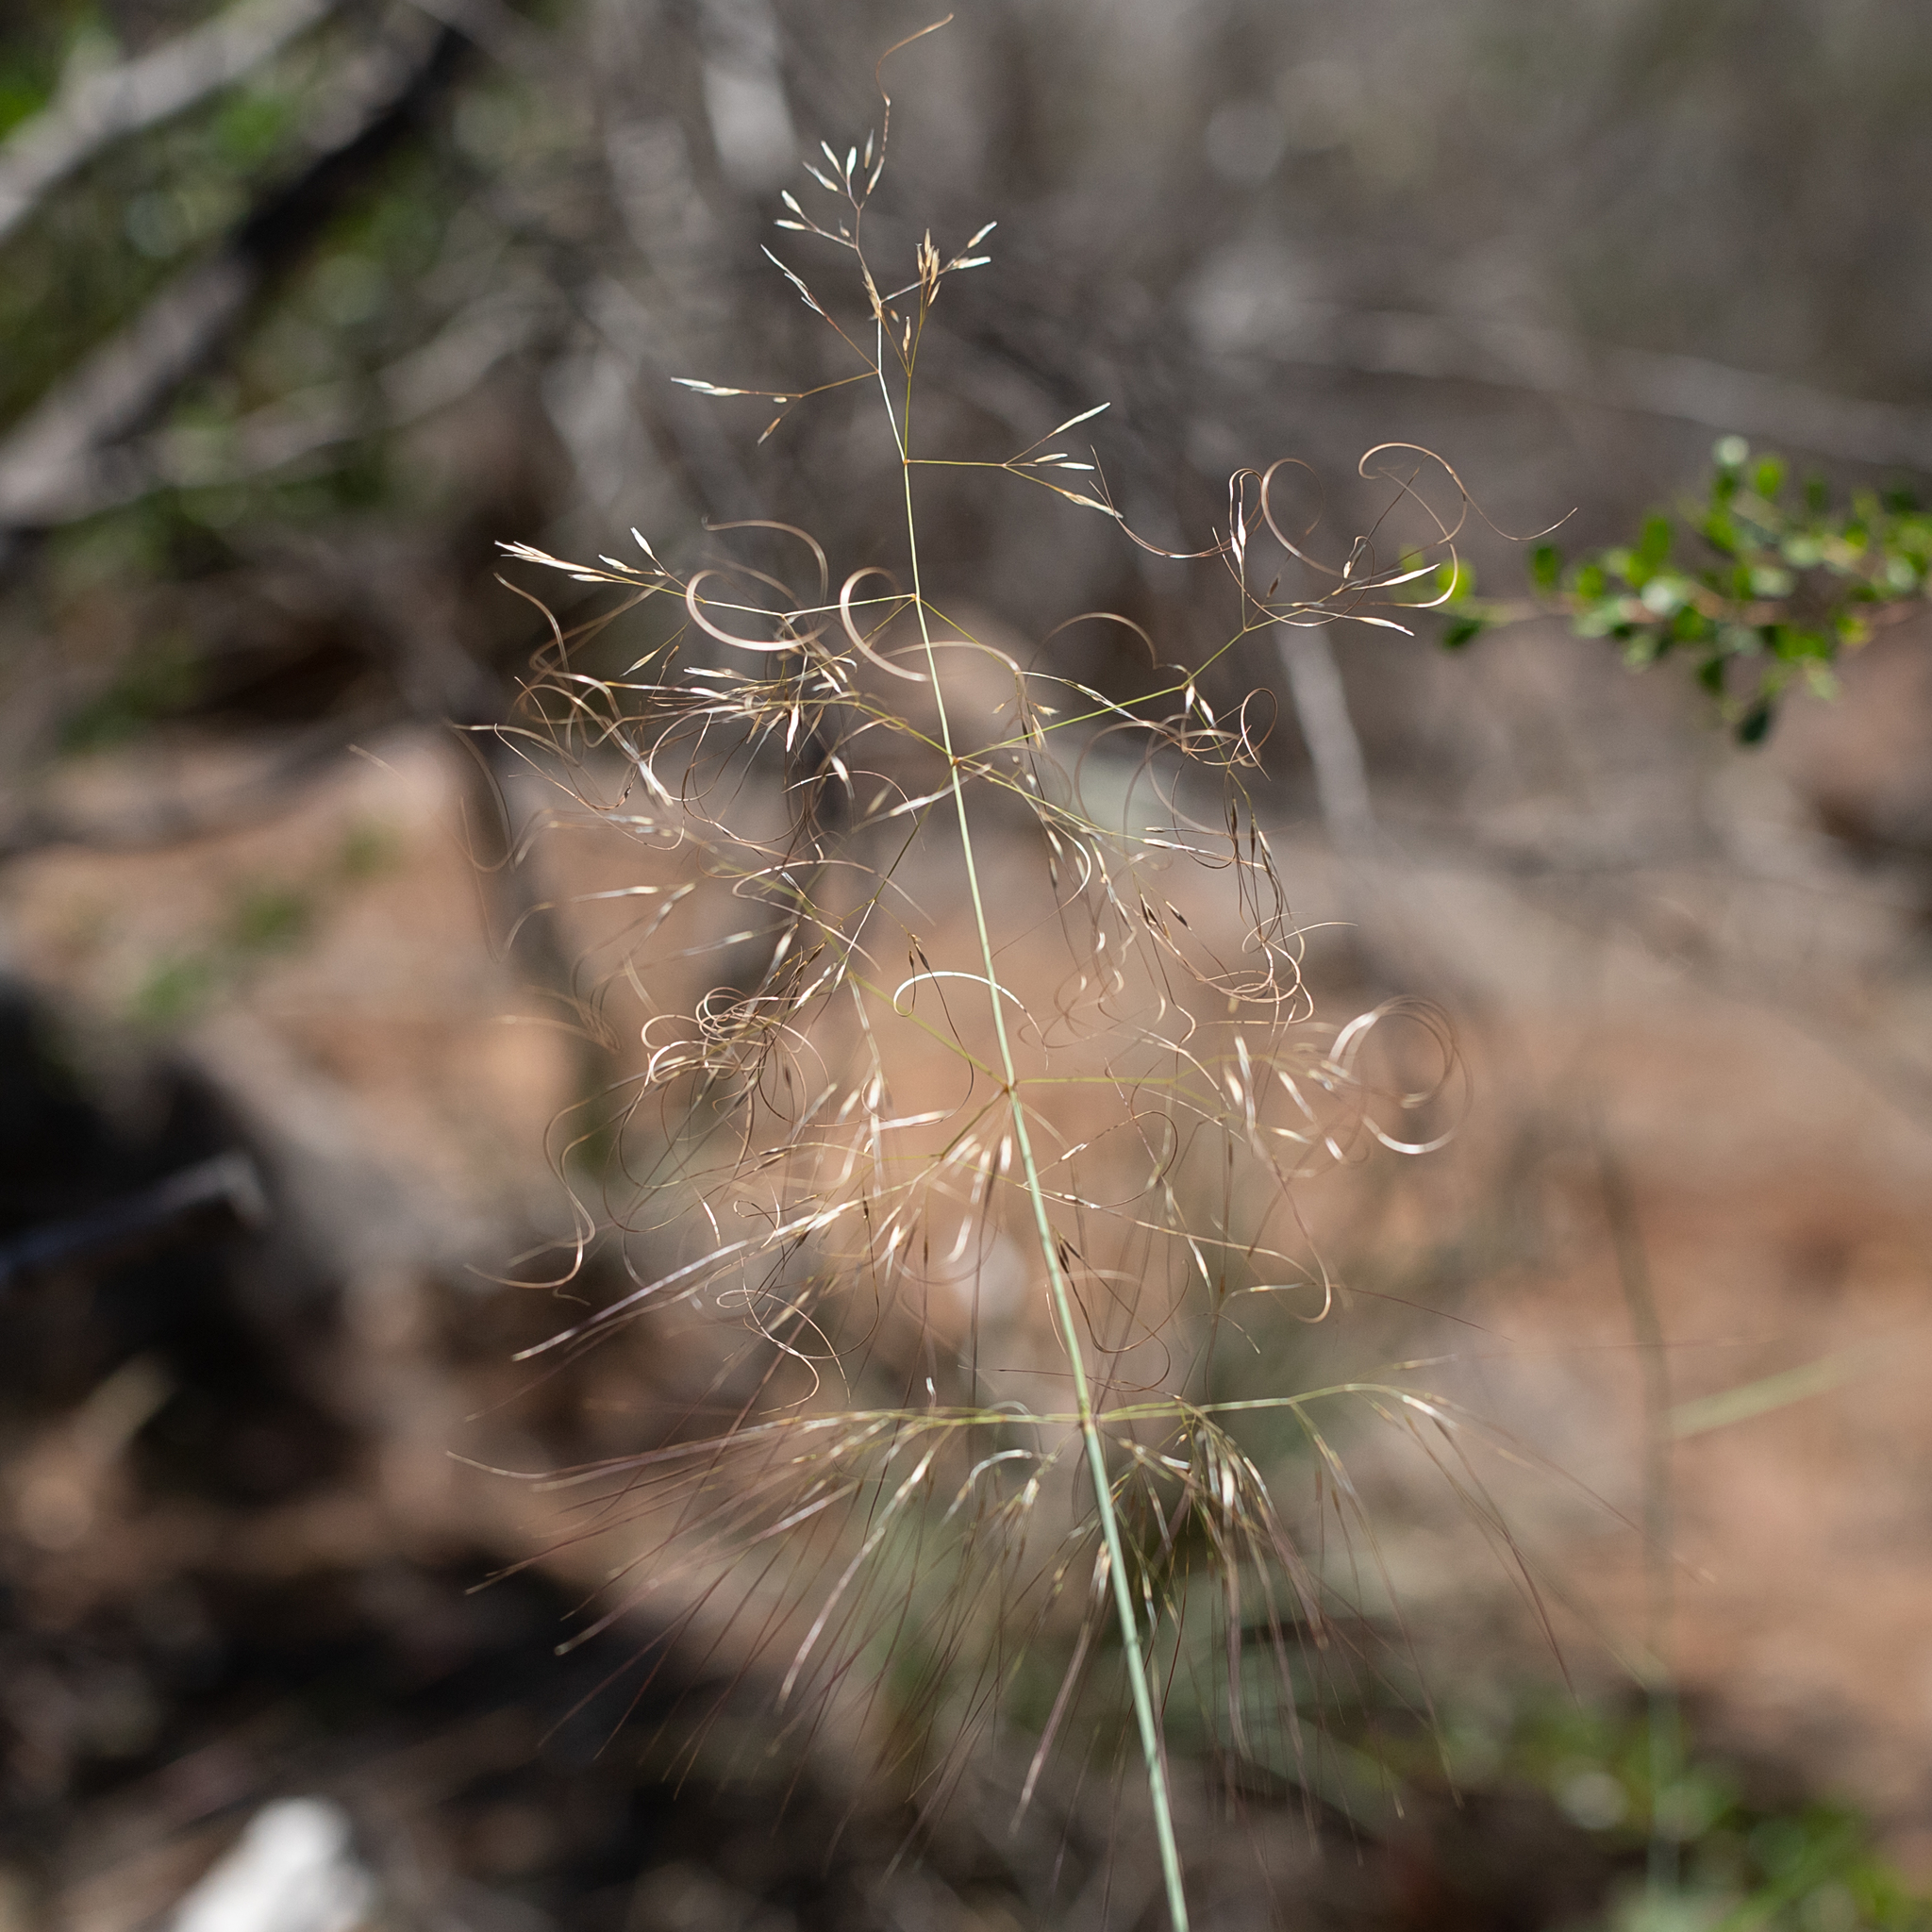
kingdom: Plantae
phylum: Tracheophyta
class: Liliopsida
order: Poales
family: Poaceae
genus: Austrostipa
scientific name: Austrostipa platychaeta
